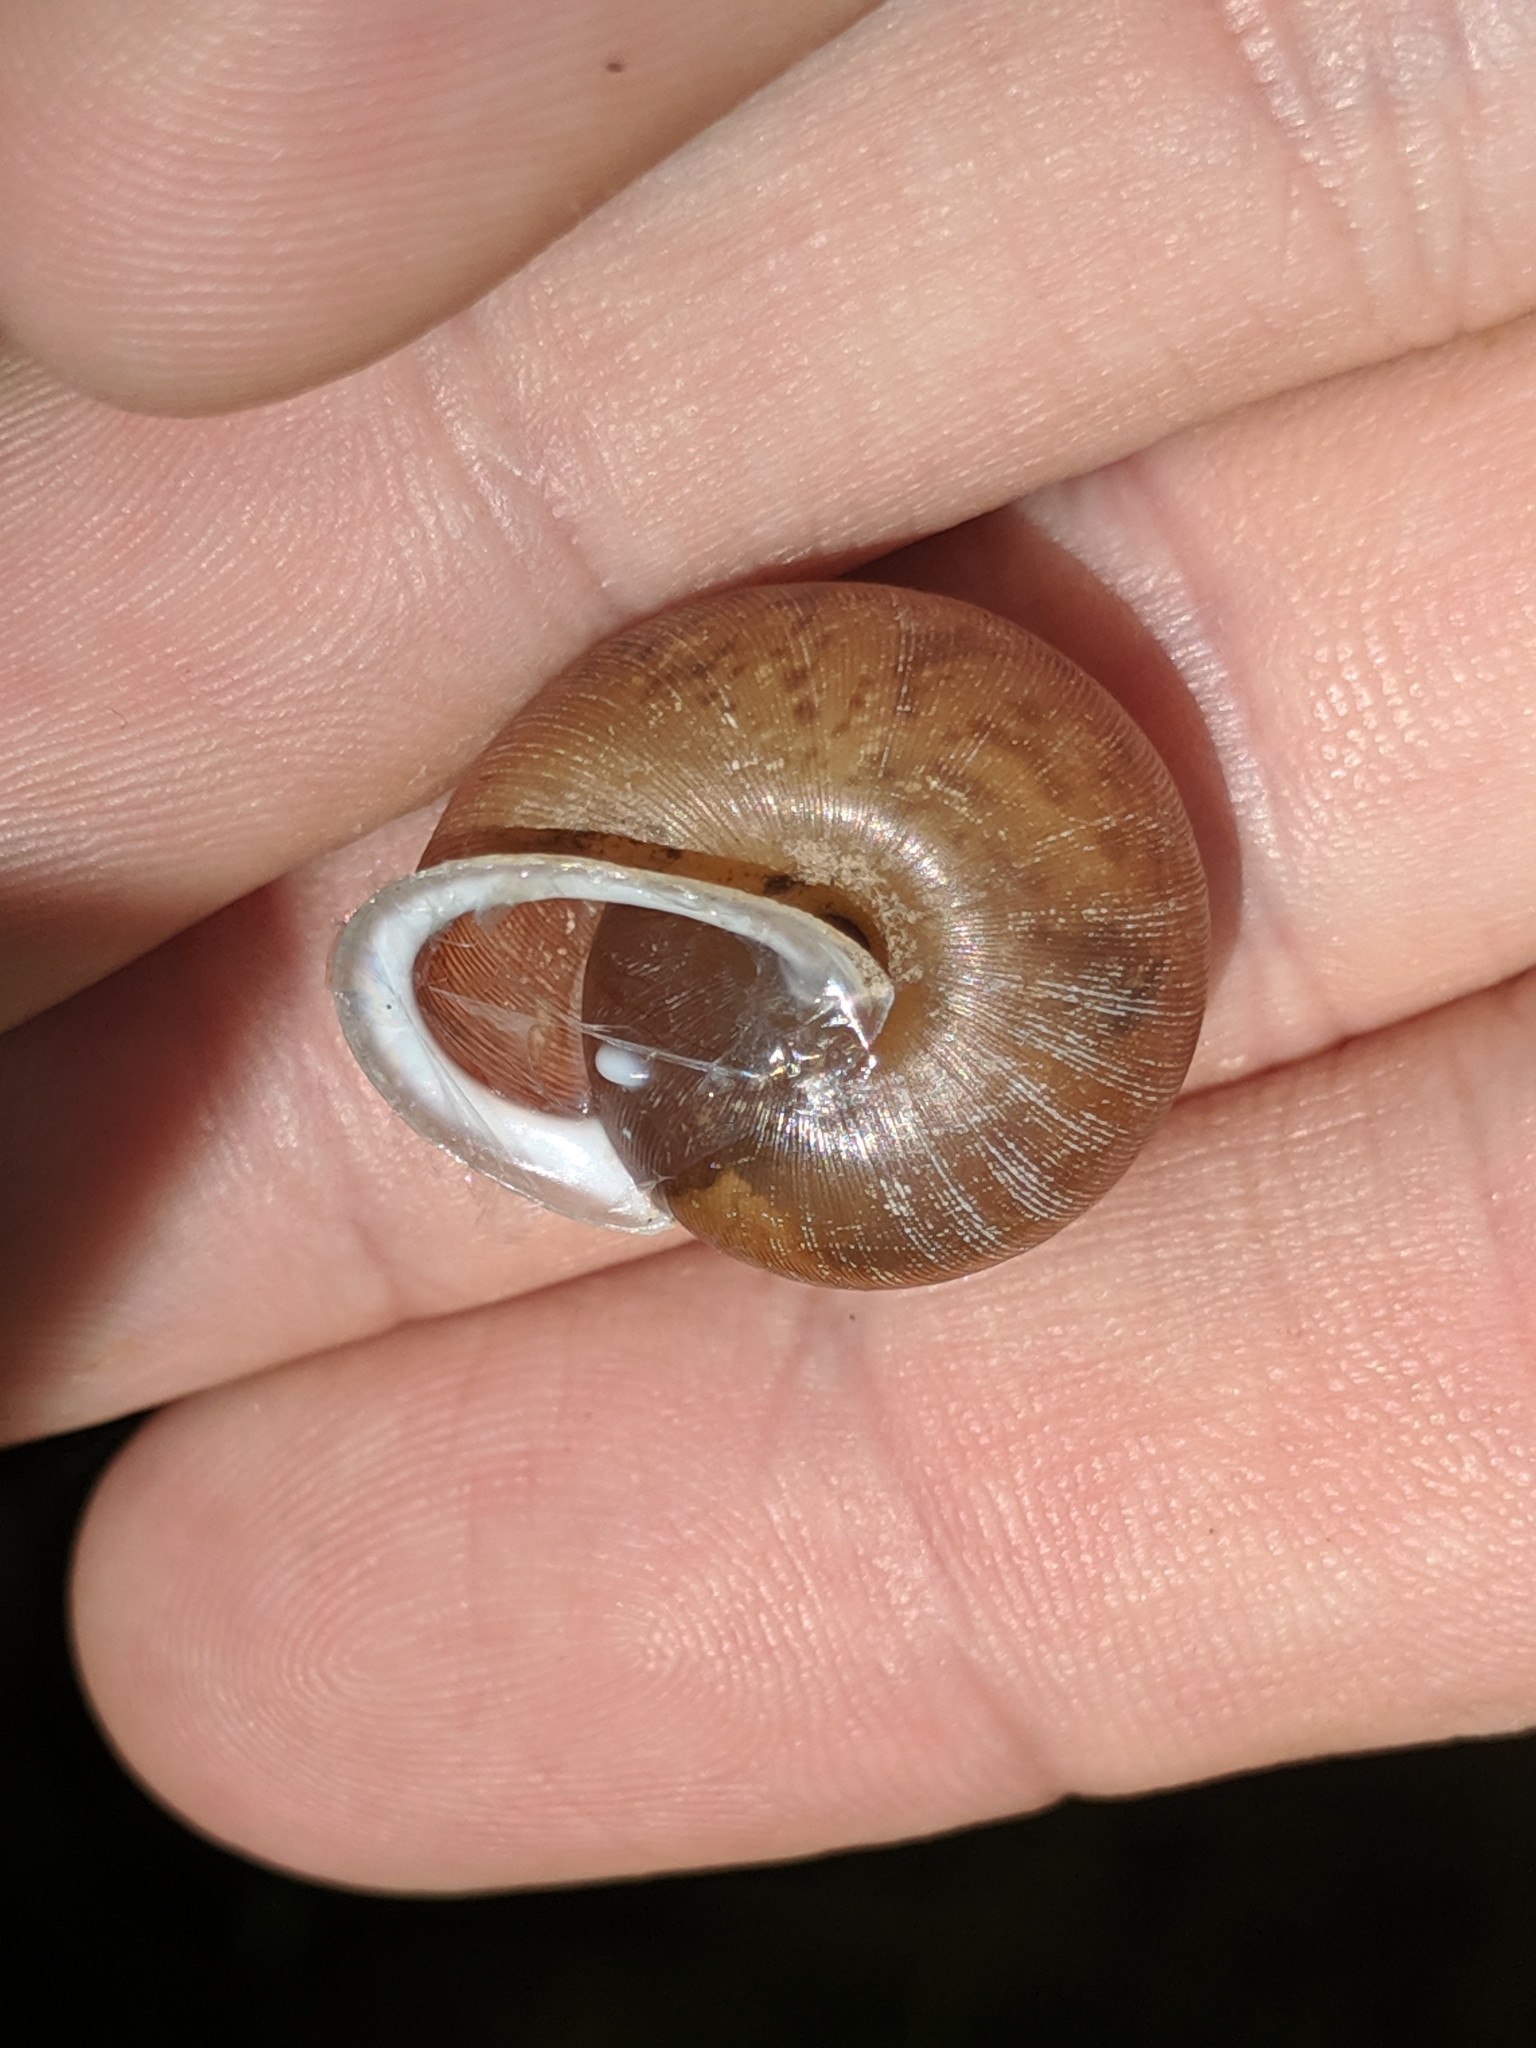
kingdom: Animalia
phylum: Mollusca
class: Gastropoda
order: Stylommatophora
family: Polygyridae
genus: Mesodon
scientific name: Mesodon thyroidus
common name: White-lip globe
